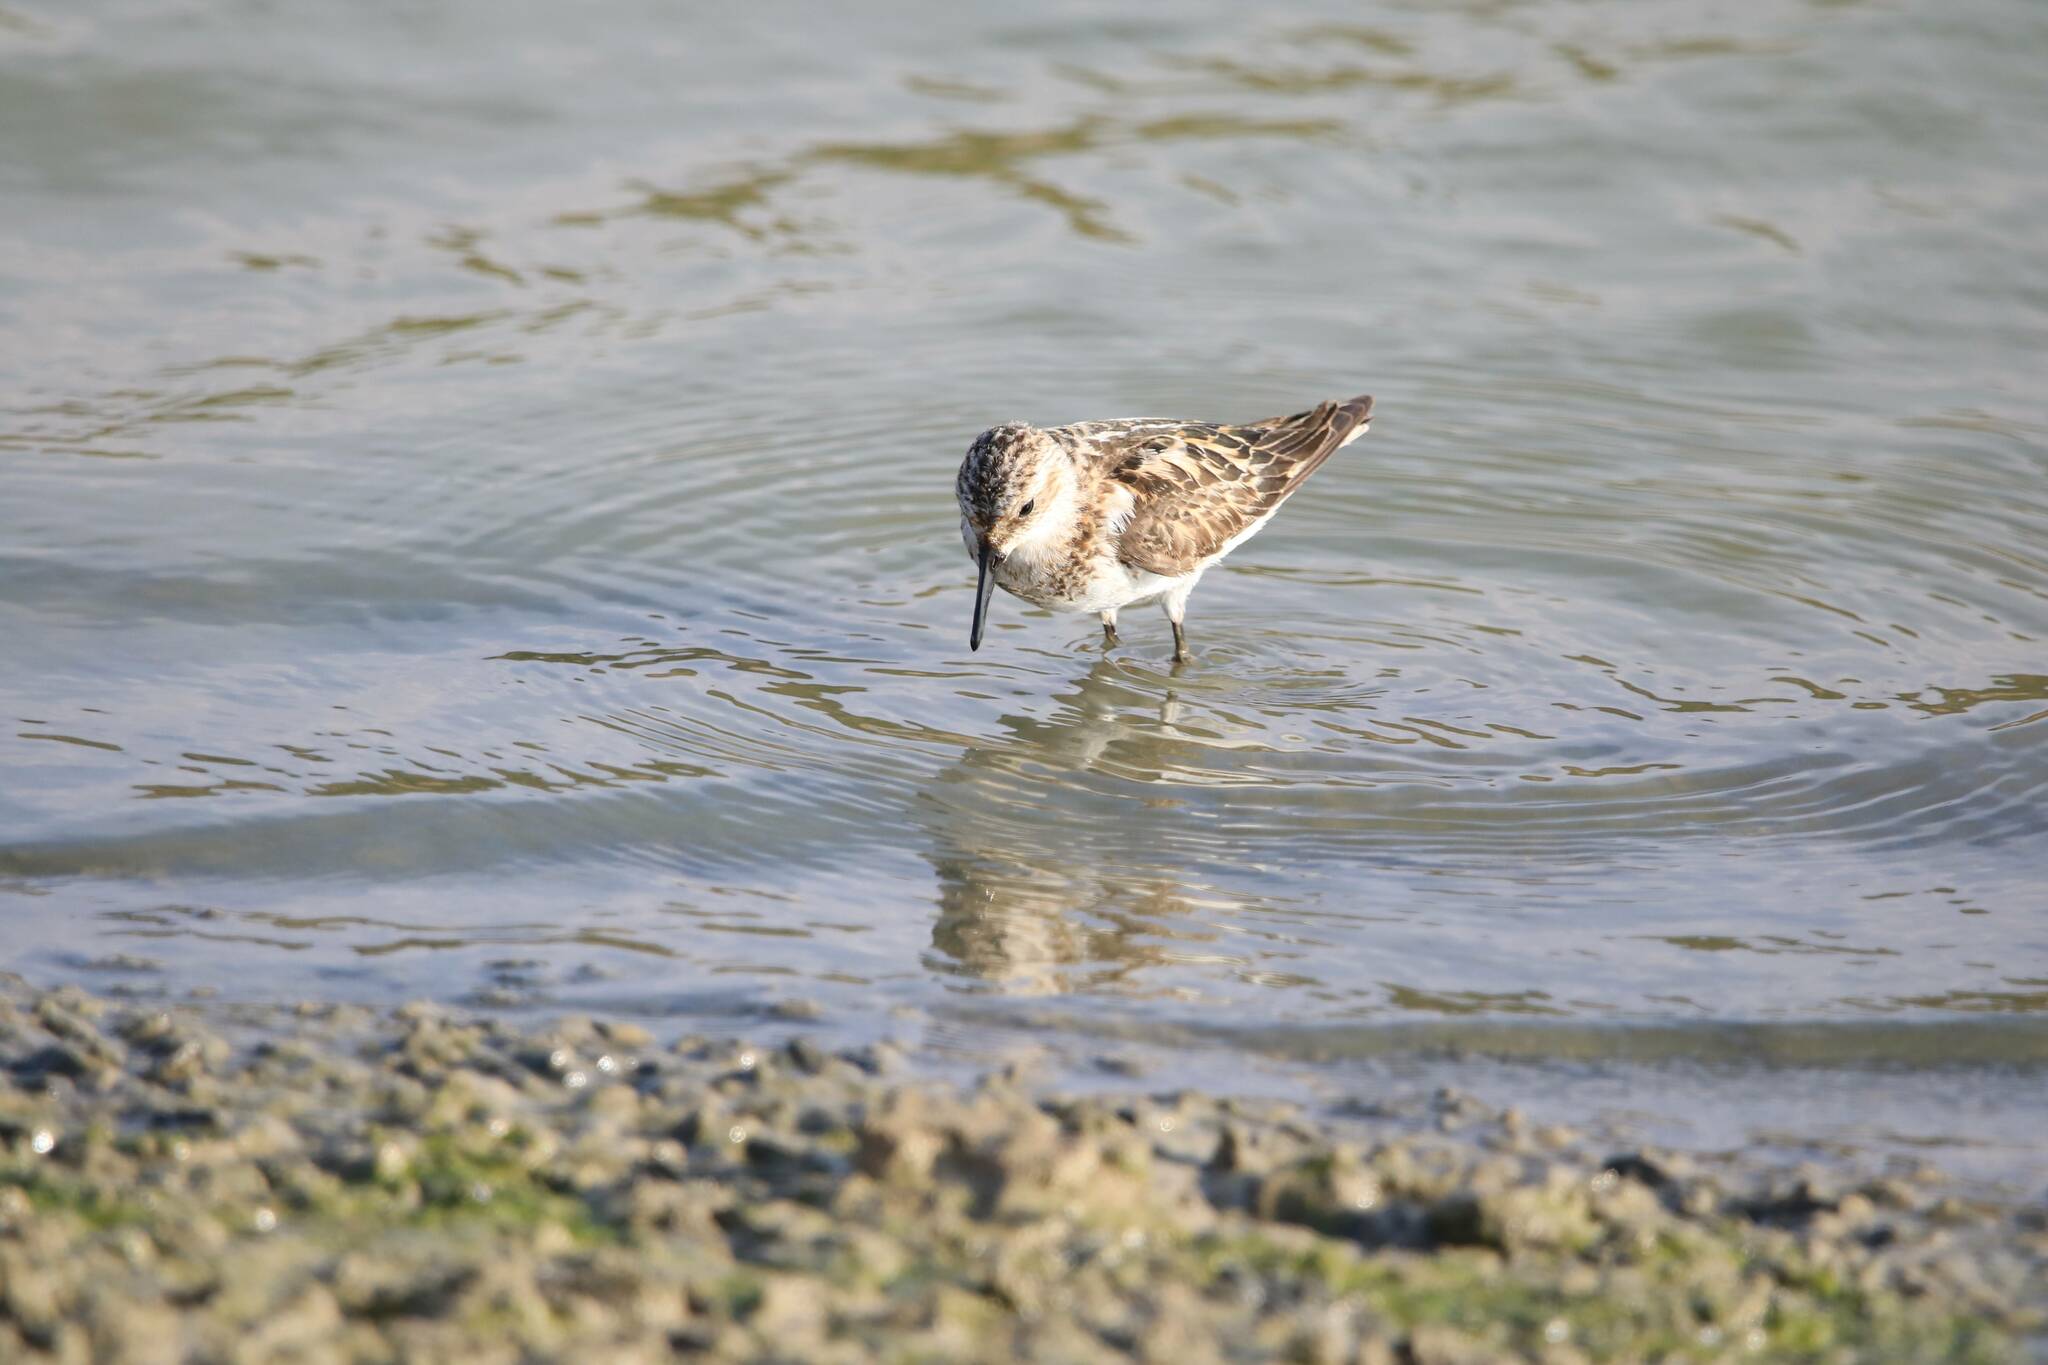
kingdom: Animalia
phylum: Chordata
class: Aves
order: Charadriiformes
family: Scolopacidae
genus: Calidris
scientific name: Calidris minuta
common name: Little stint
